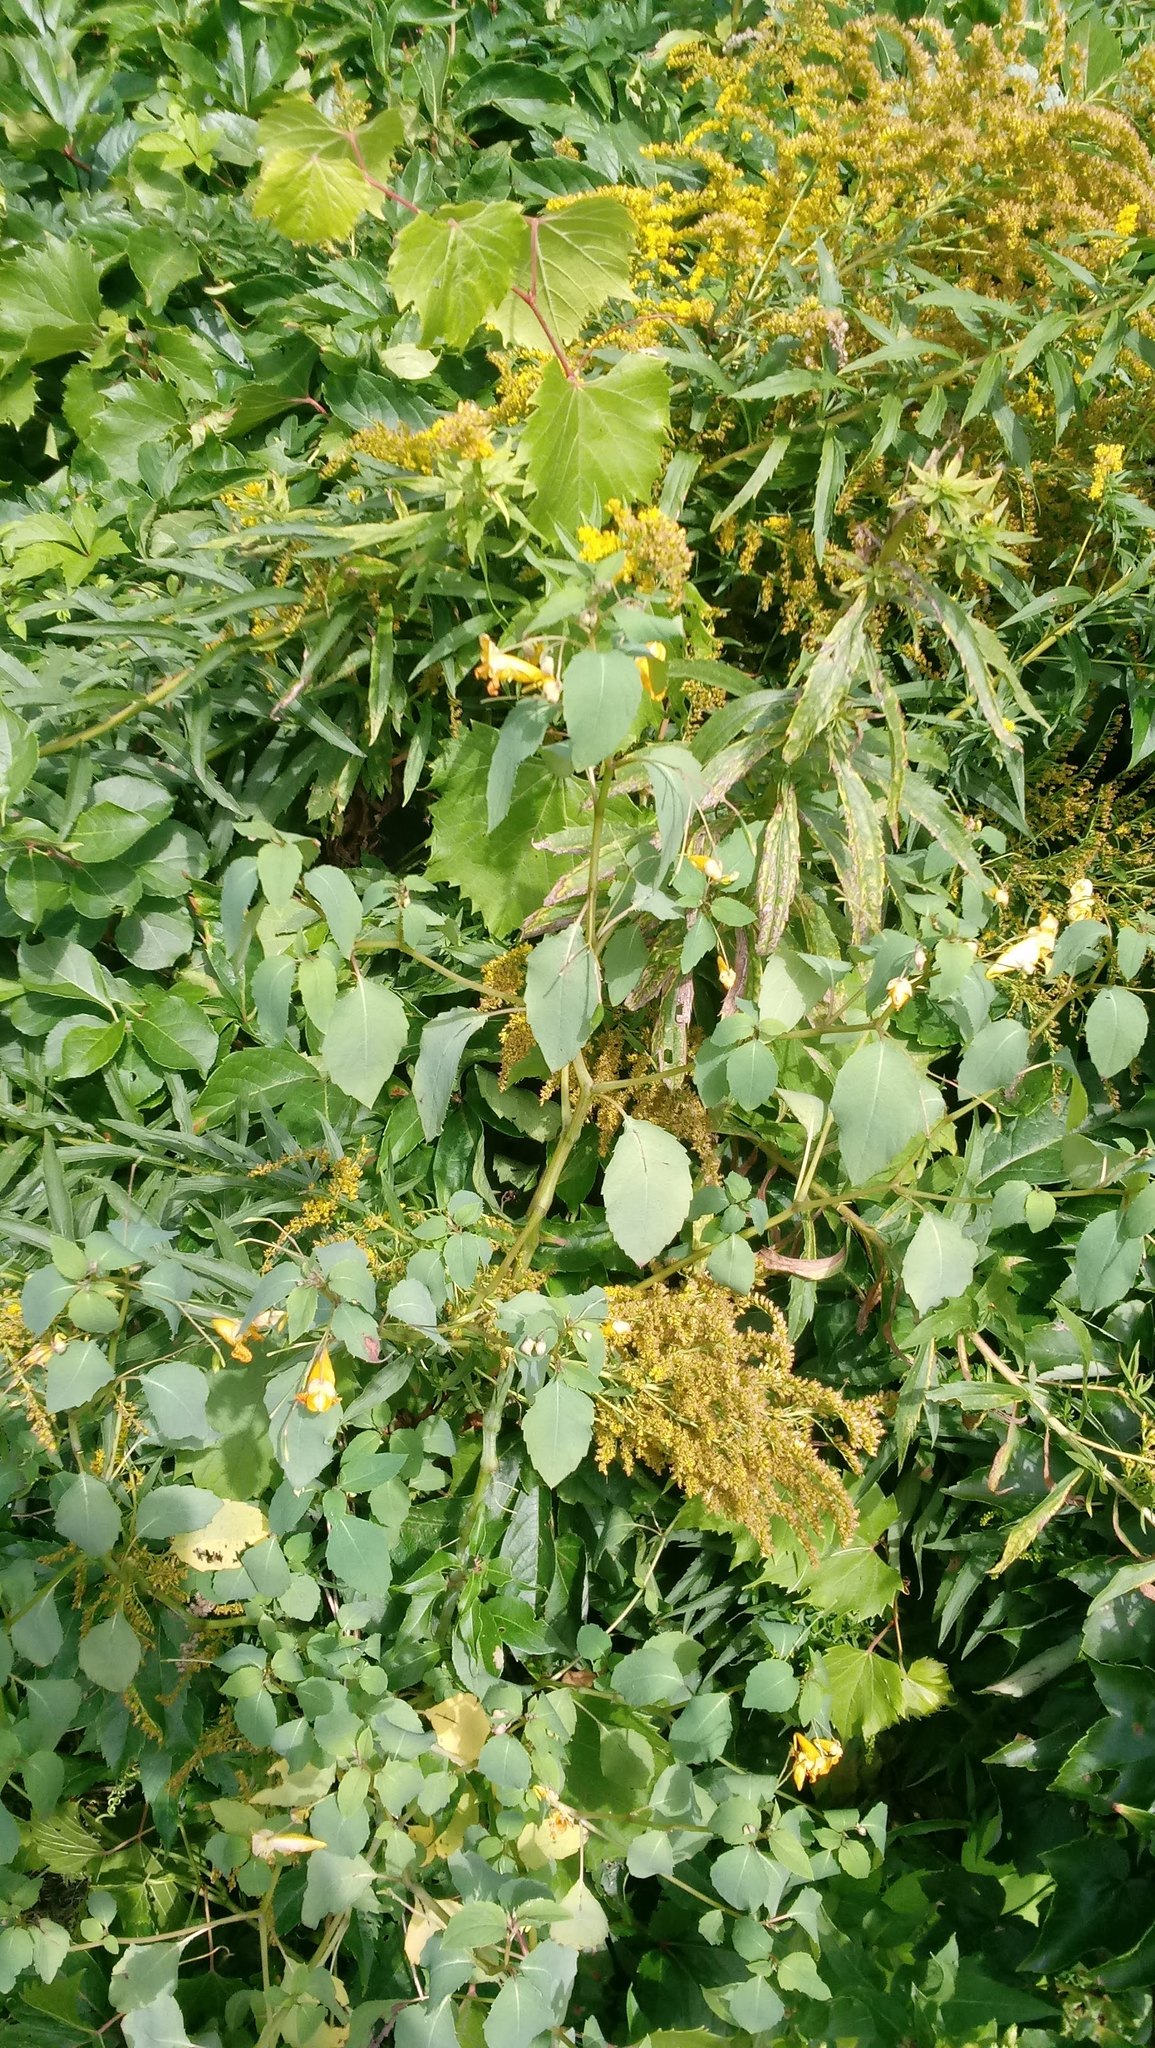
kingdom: Plantae
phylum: Tracheophyta
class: Magnoliopsida
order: Ericales
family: Balsaminaceae
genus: Impatiens
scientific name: Impatiens capensis
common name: Orange balsam
